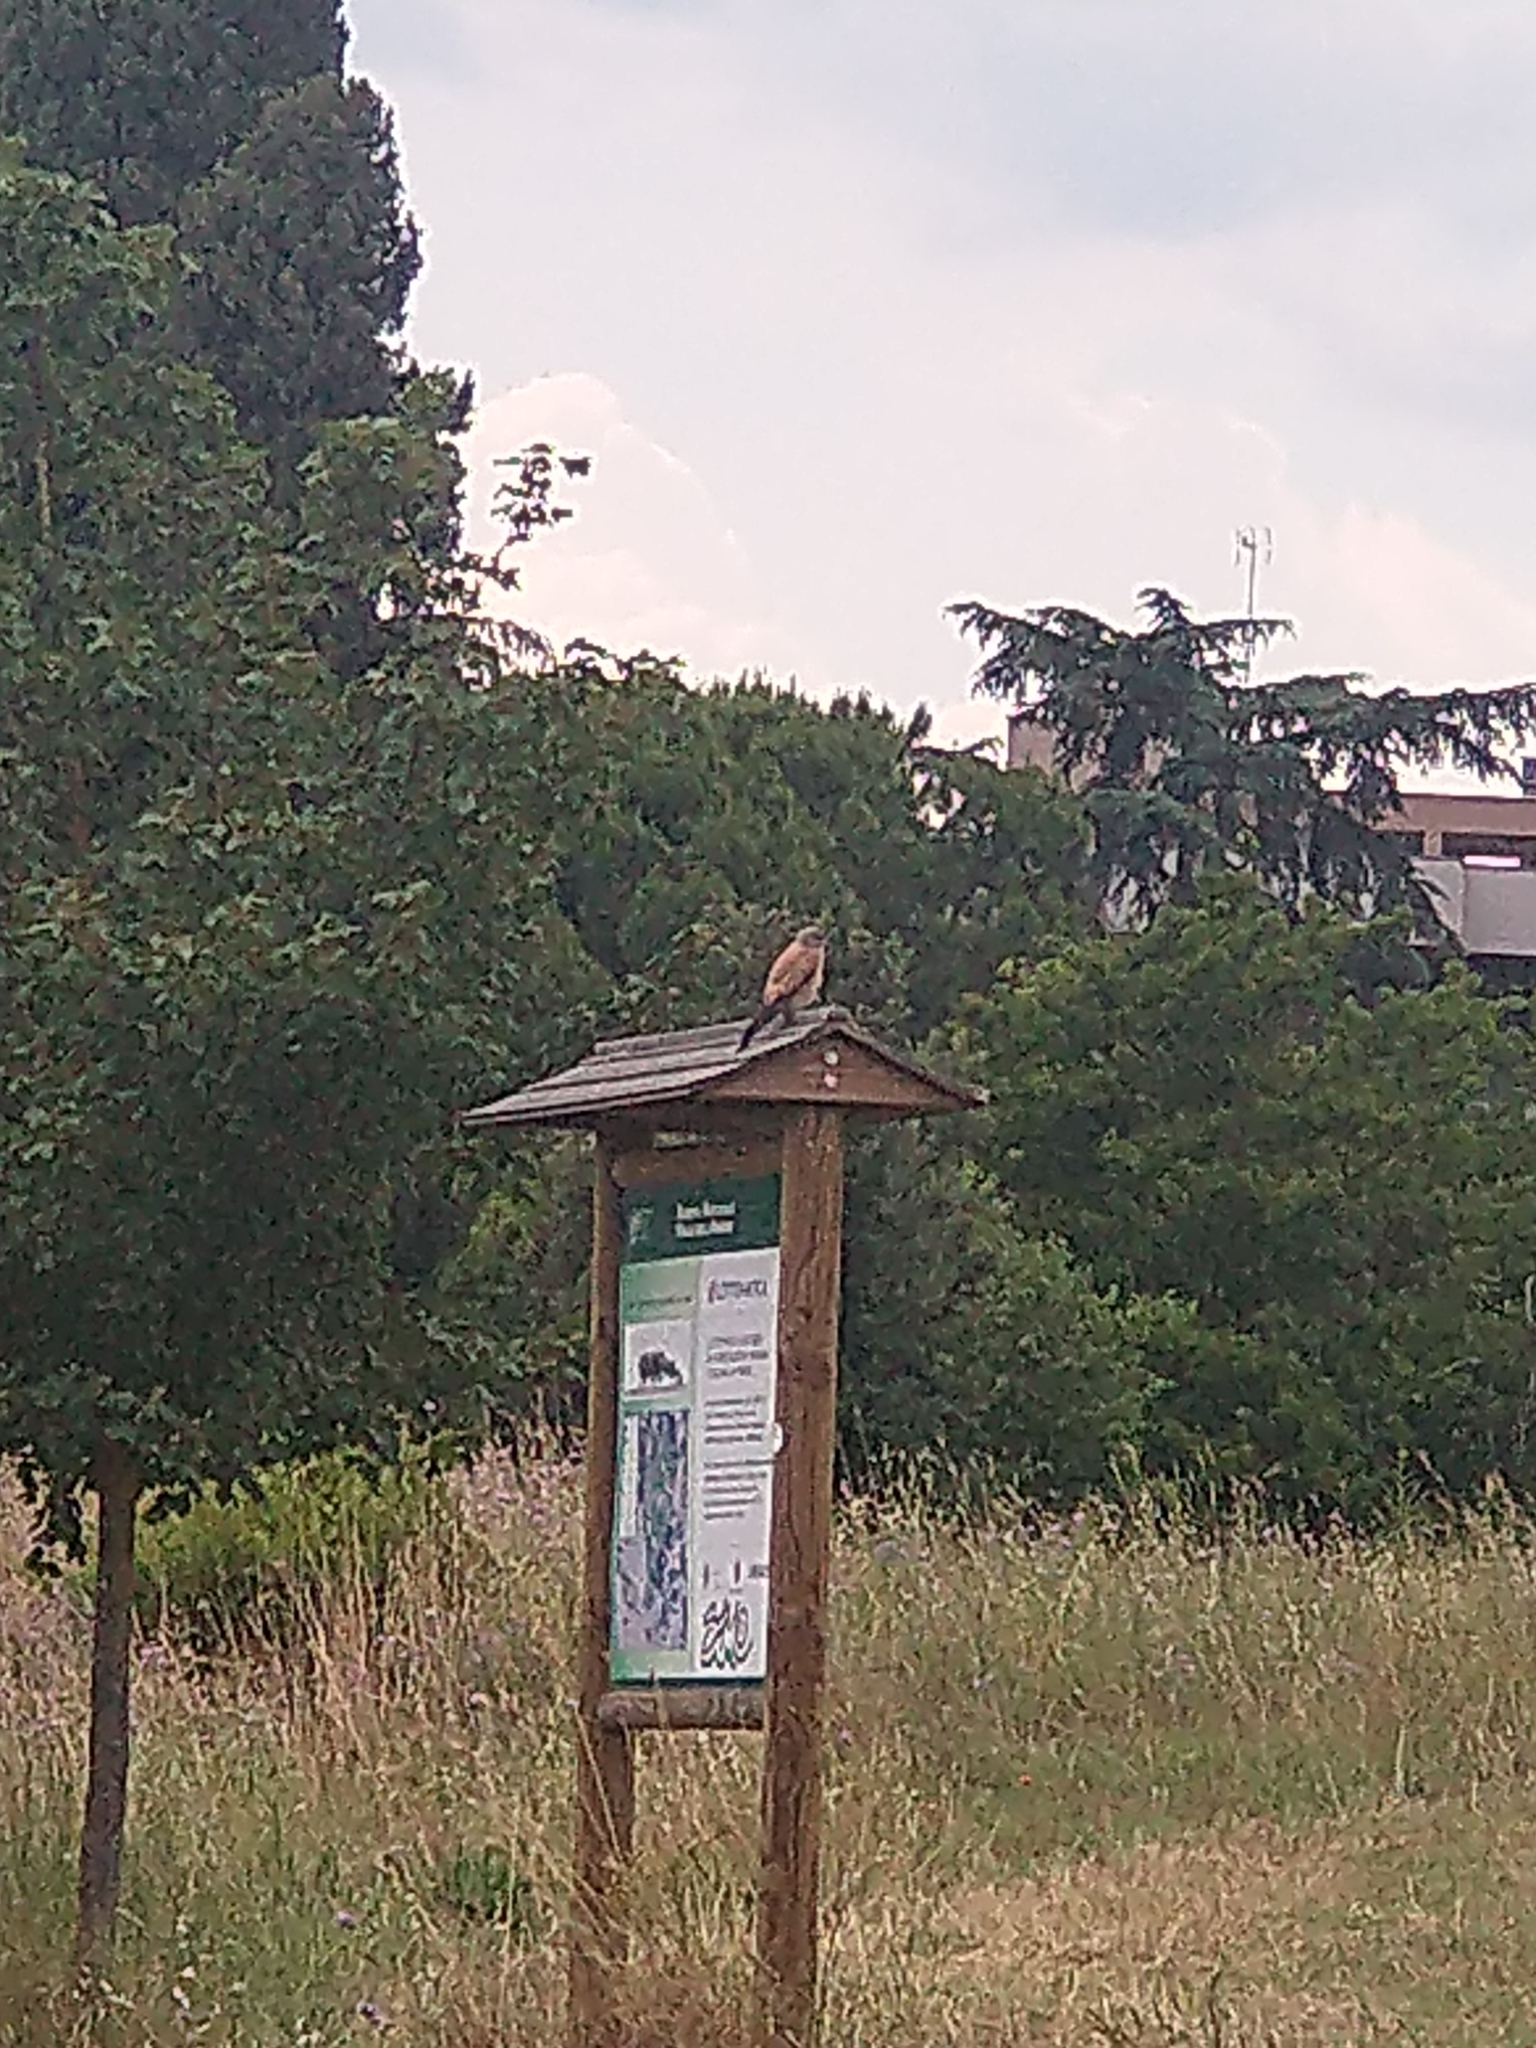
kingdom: Animalia
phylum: Chordata
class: Aves
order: Falconiformes
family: Falconidae
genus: Falco
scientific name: Falco tinnunculus
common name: Common kestrel
